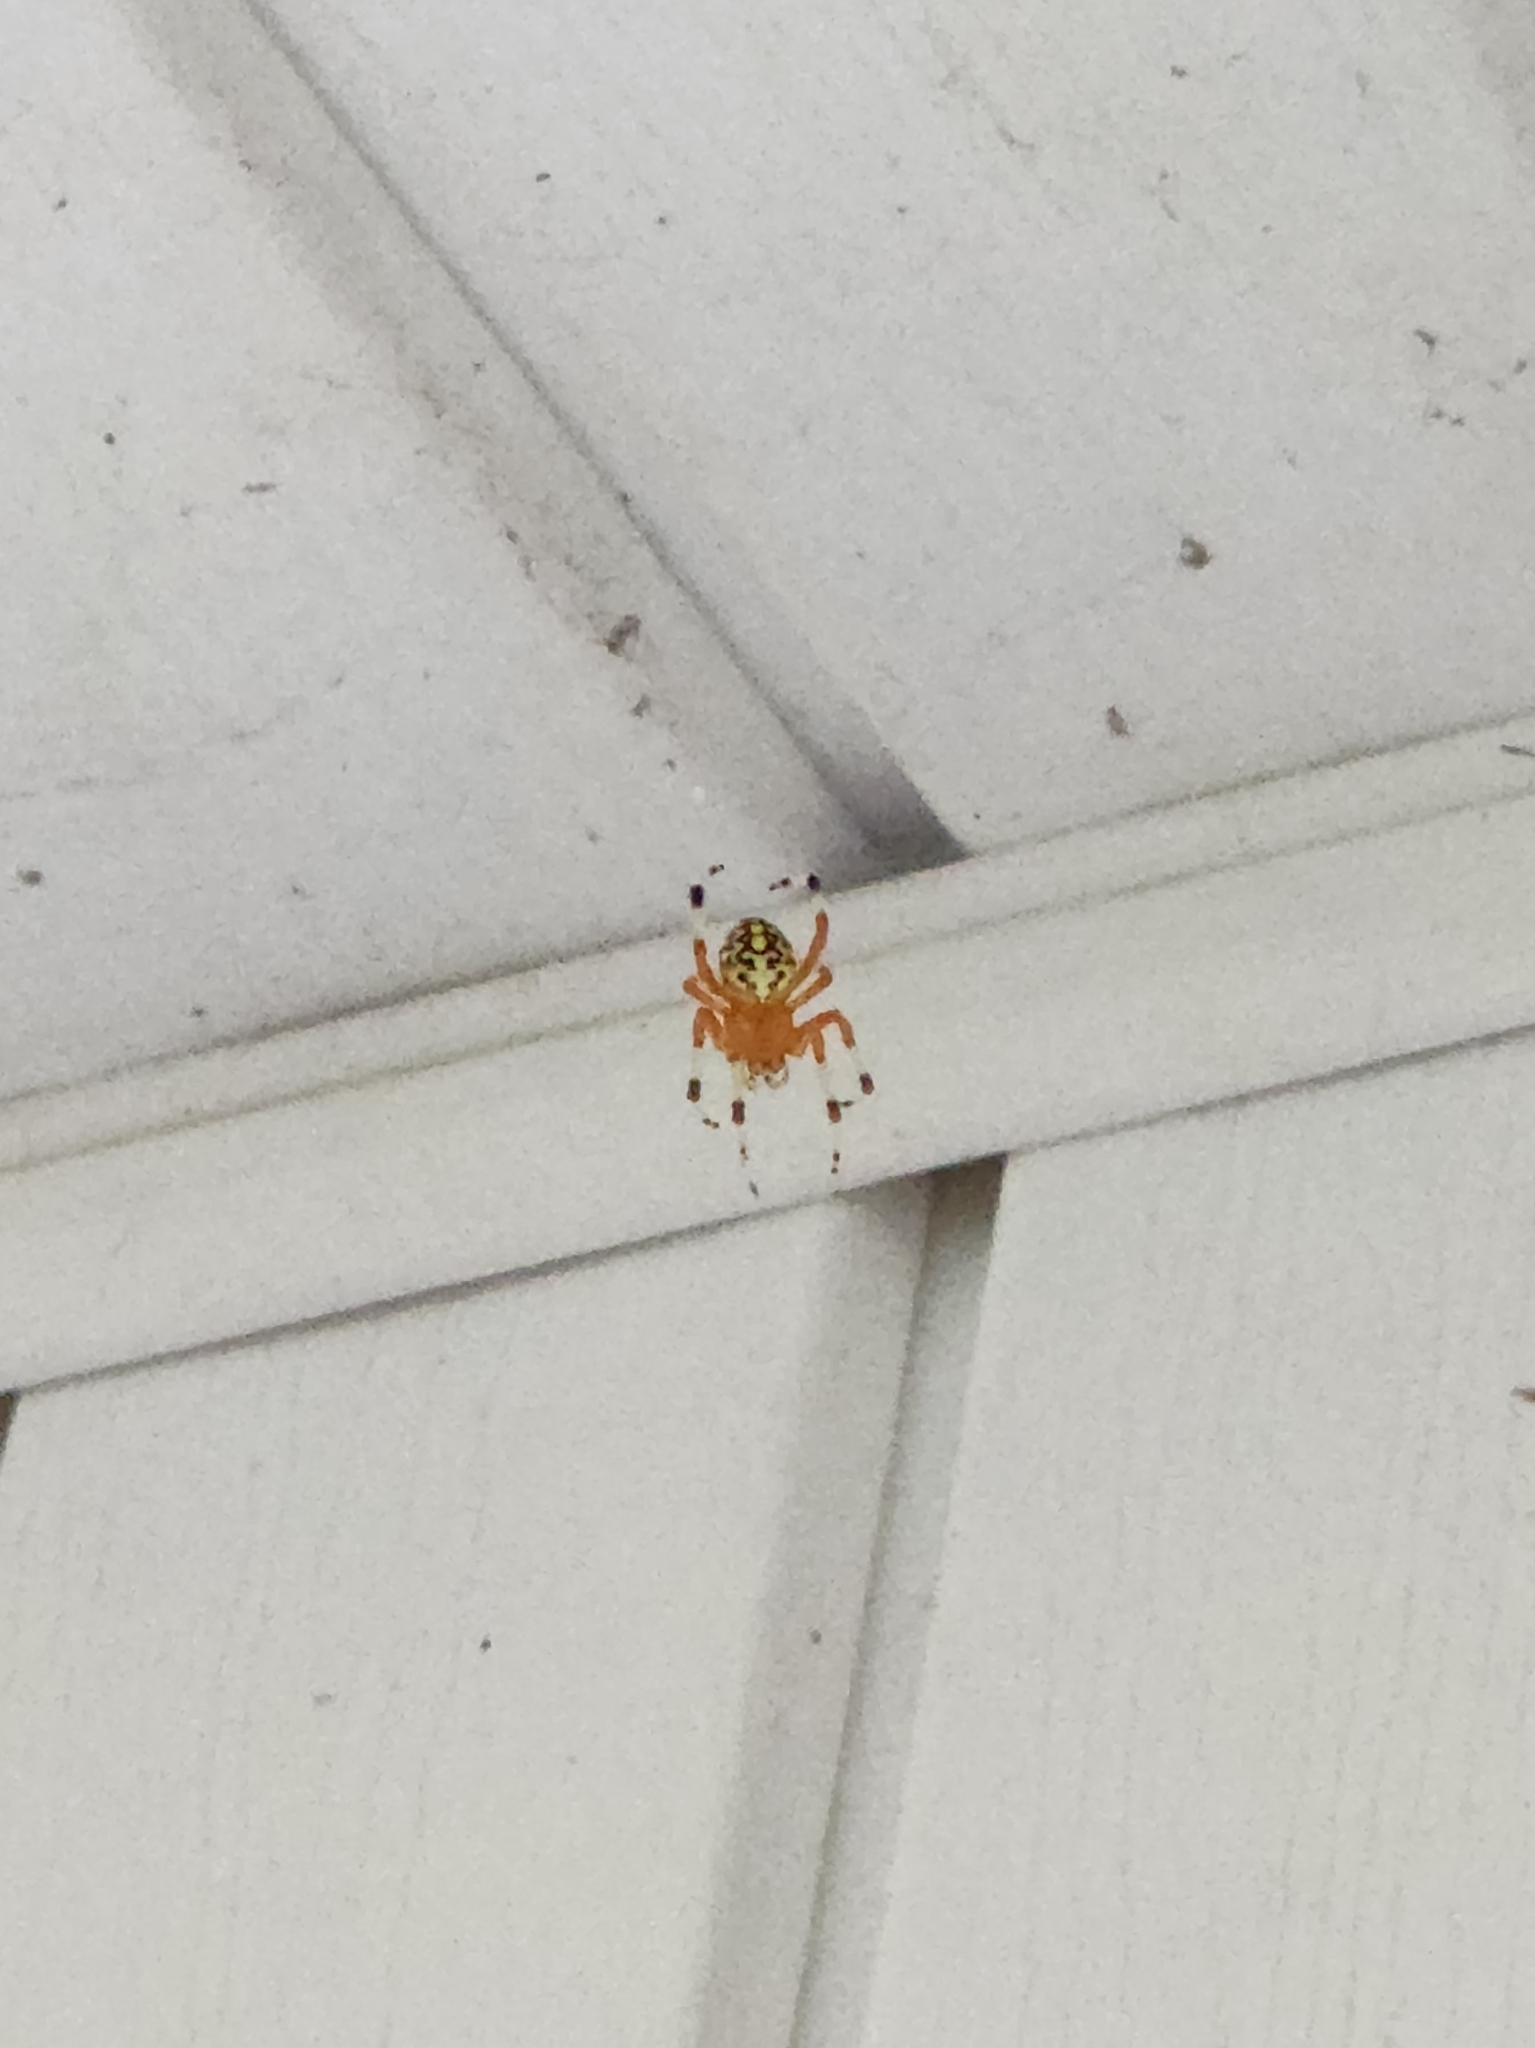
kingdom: Animalia
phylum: Arthropoda
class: Arachnida
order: Araneae
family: Araneidae
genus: Araneus
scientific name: Araneus marmoreus
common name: Marbled orbweaver
